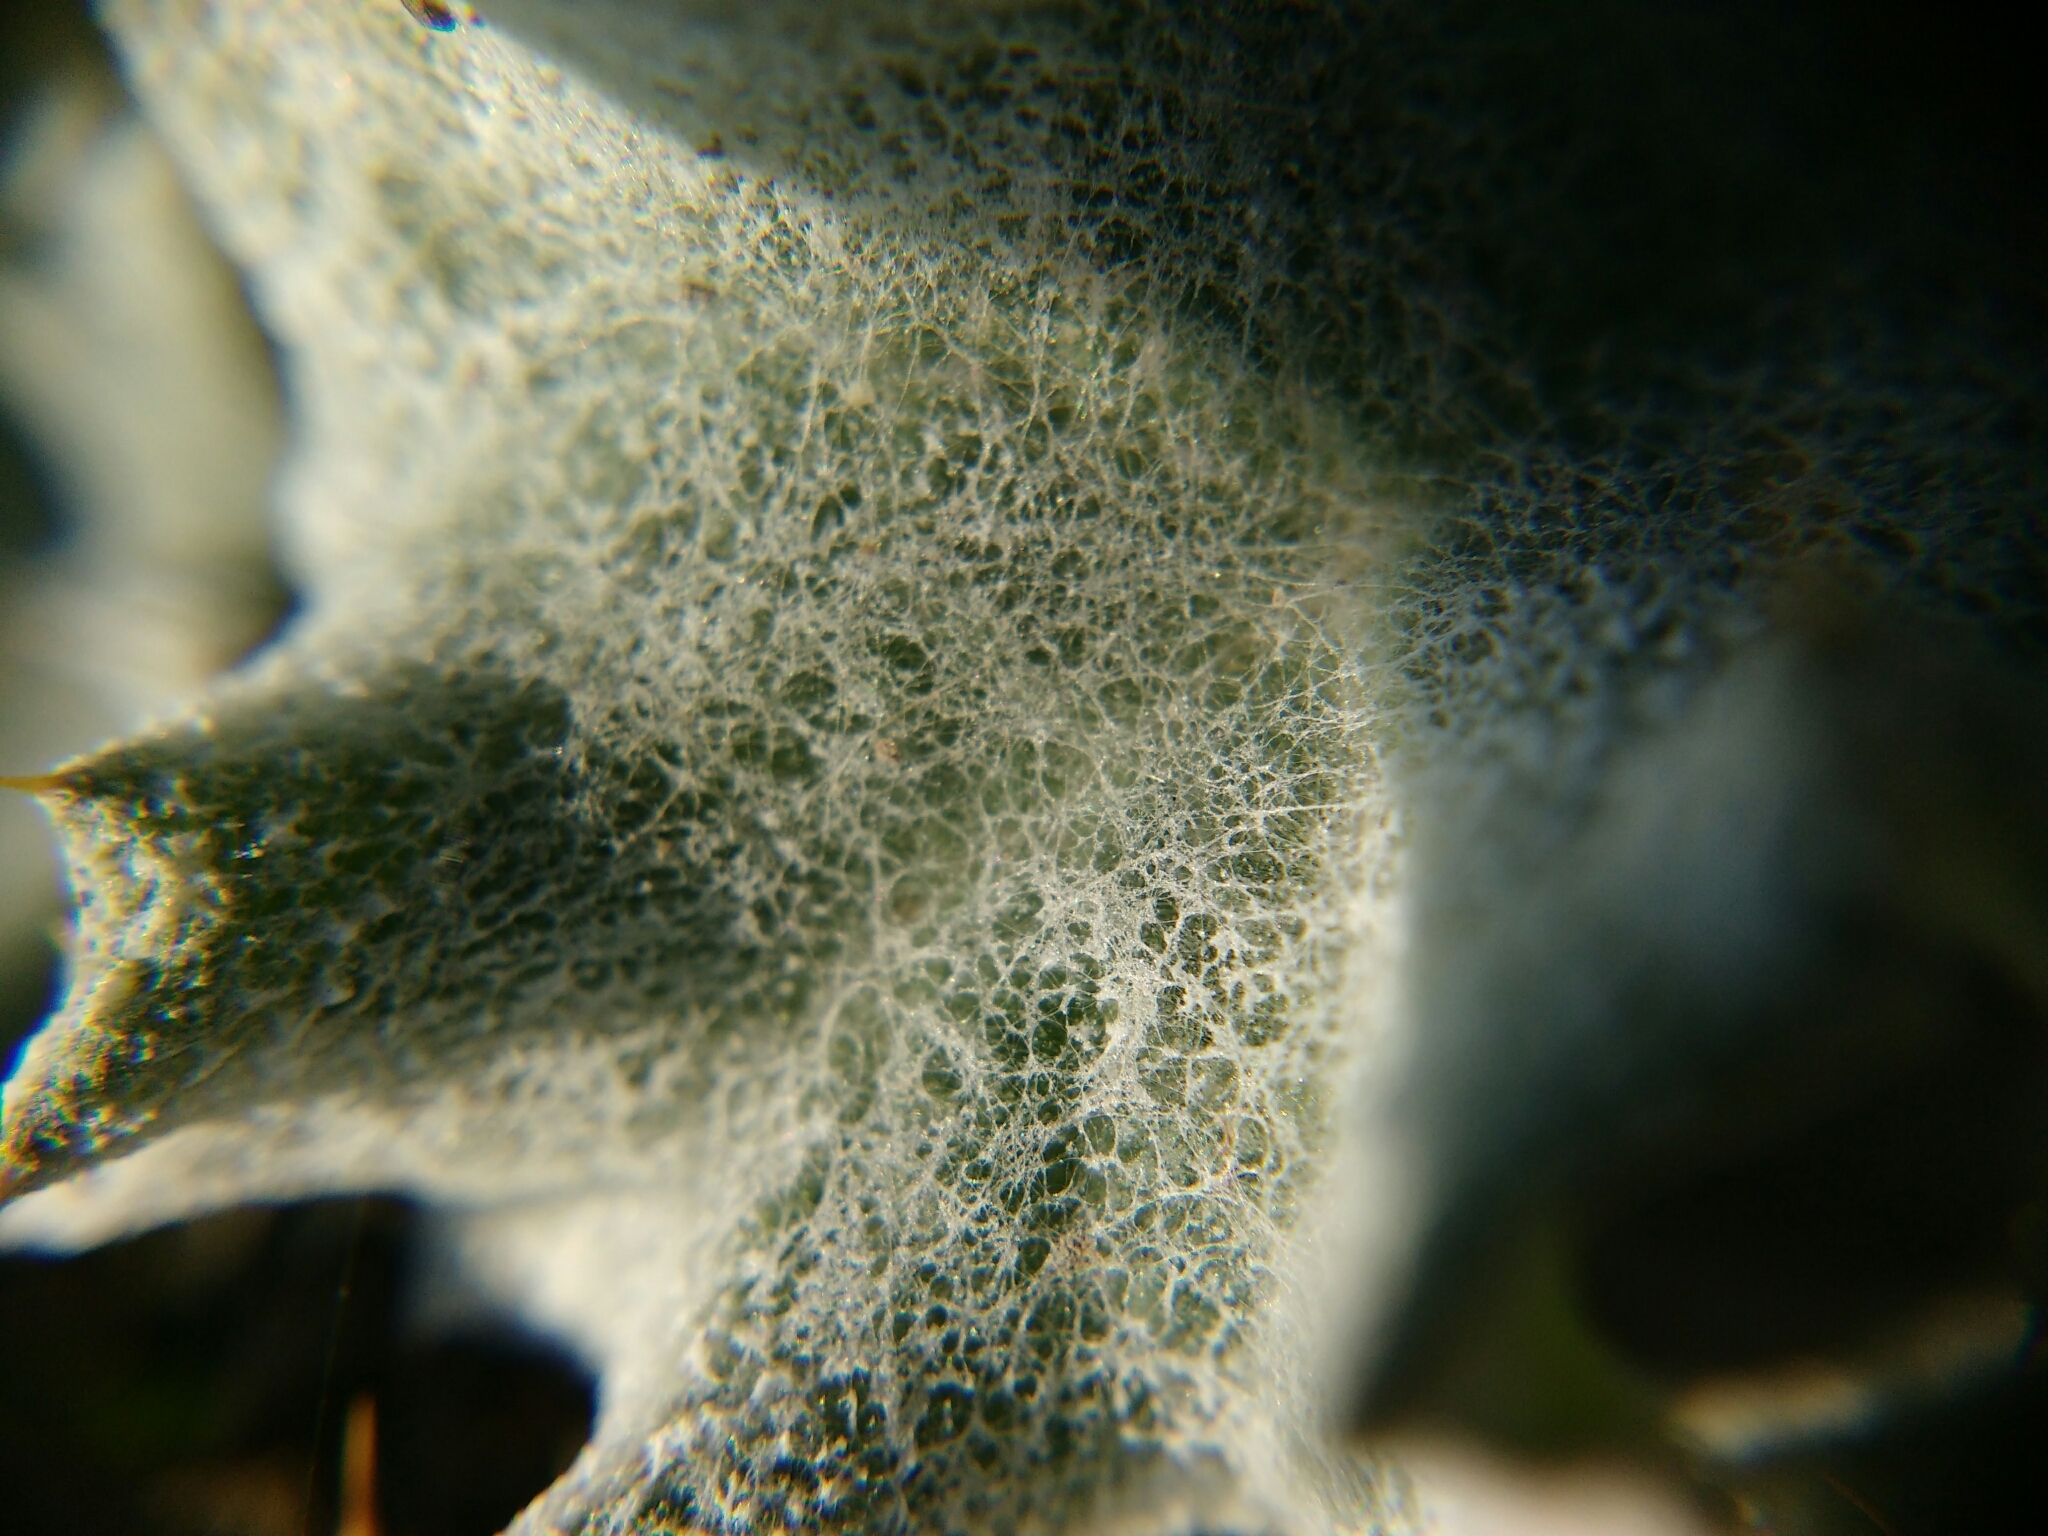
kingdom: Plantae
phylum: Tracheophyta
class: Magnoliopsida
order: Asterales
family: Asteraceae
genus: Onopordum
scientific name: Onopordum acanthium
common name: Scotch thistle
